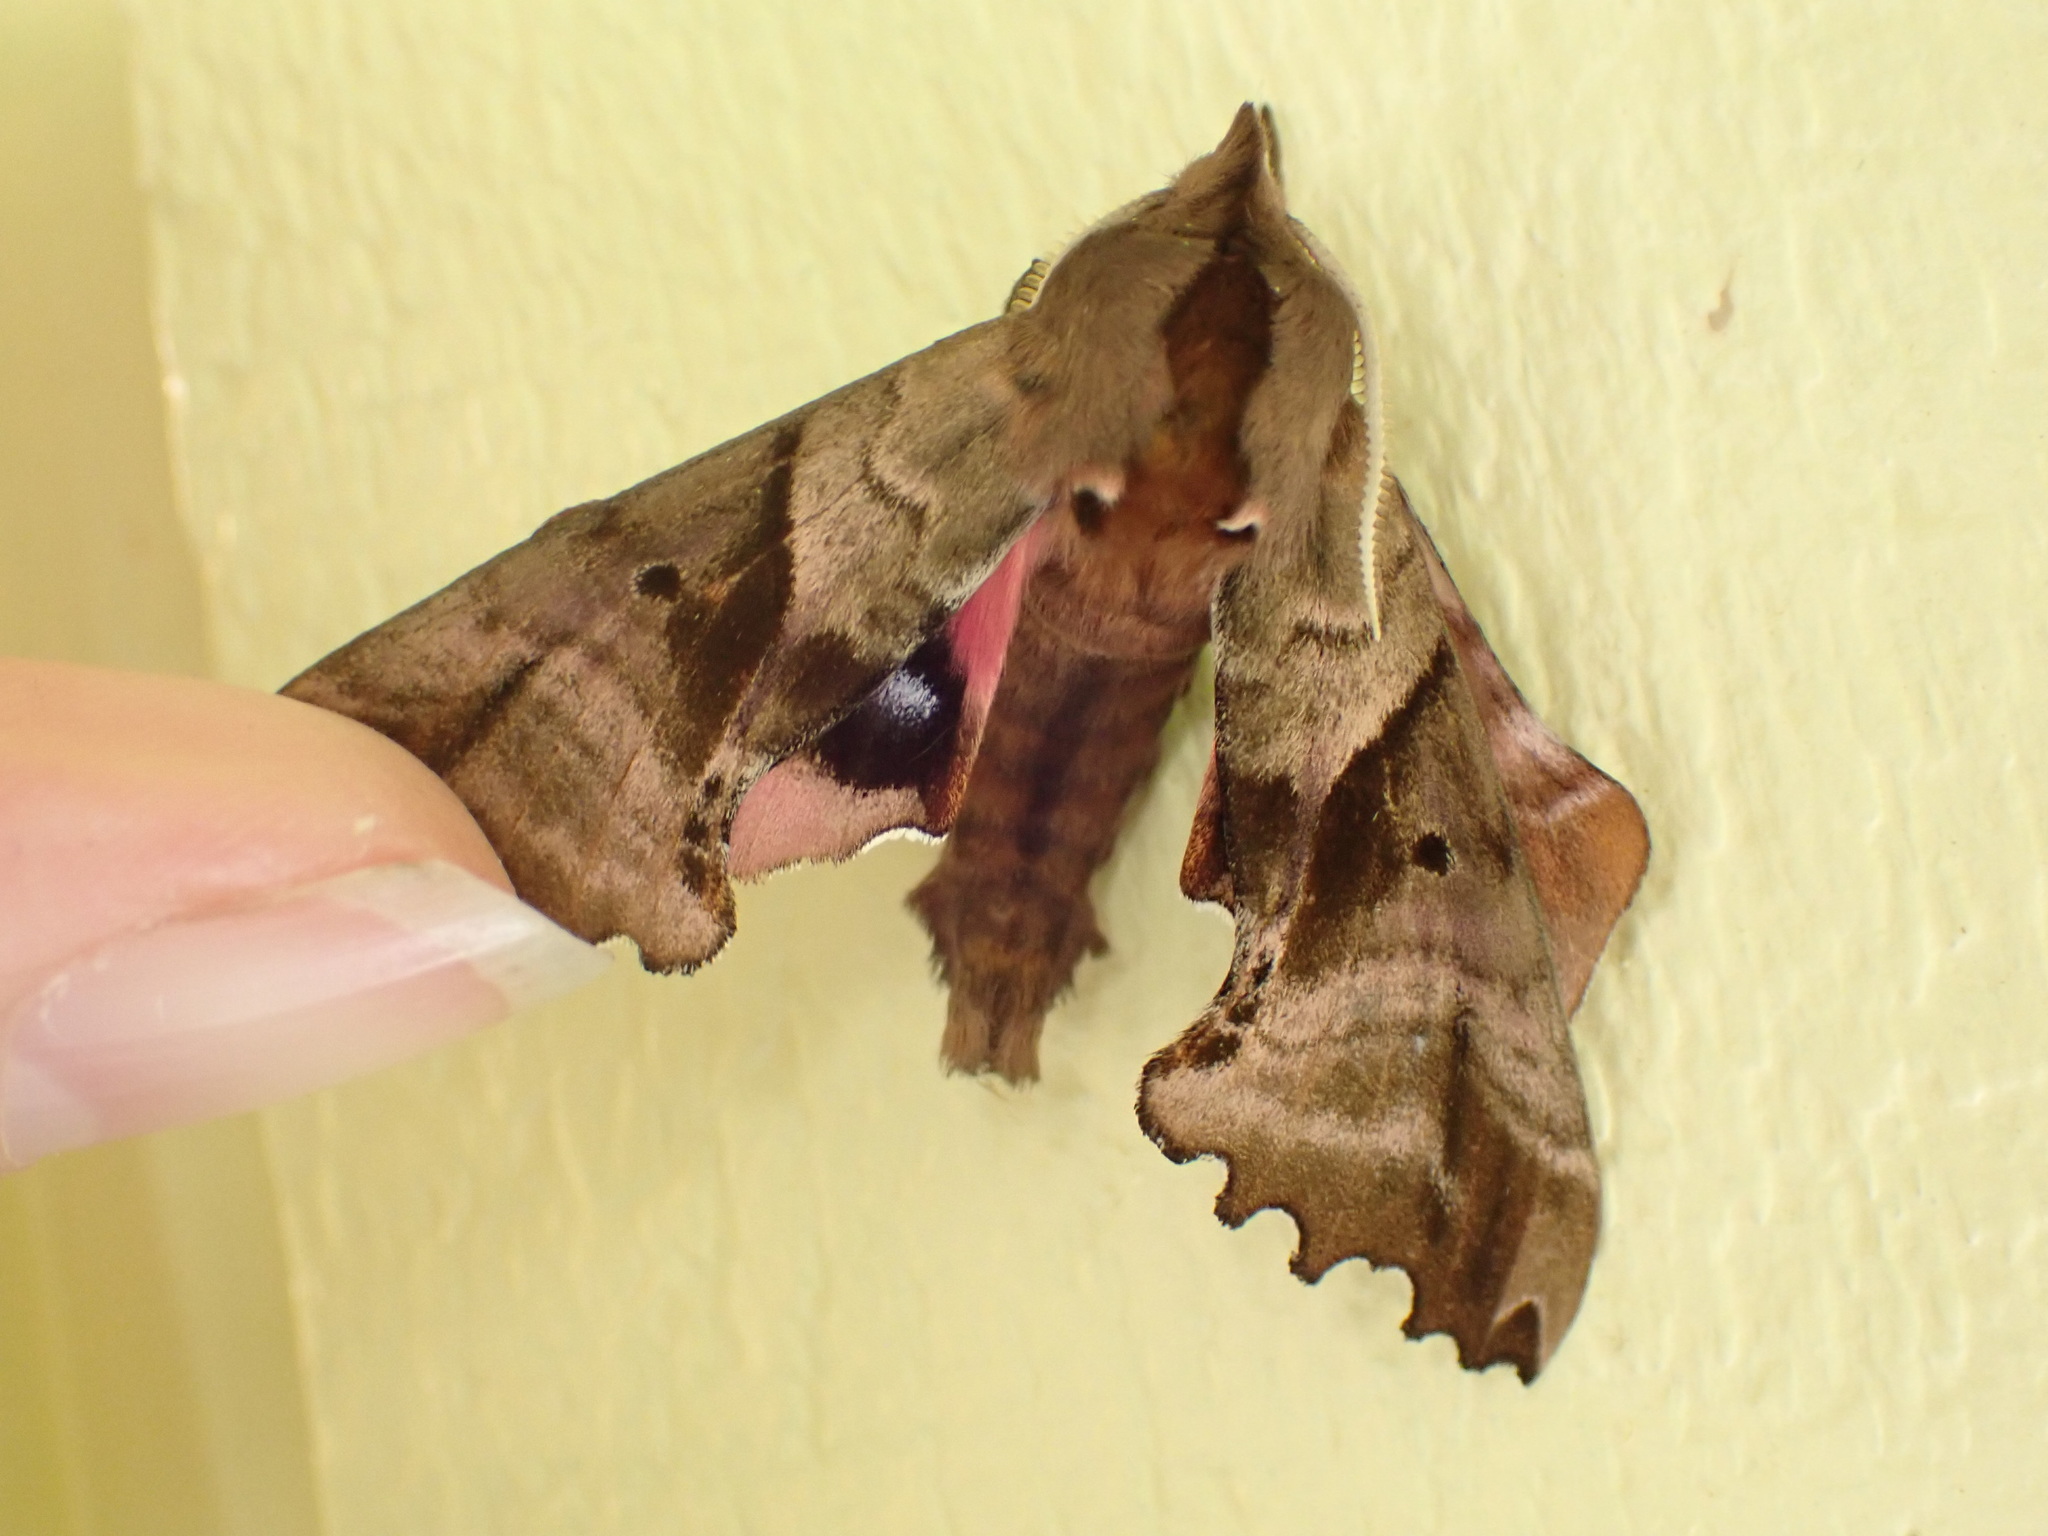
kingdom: Animalia
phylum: Arthropoda
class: Insecta
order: Lepidoptera
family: Sphingidae
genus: Paonias
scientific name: Paonias excaecata
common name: Blind-eyed sphinx
